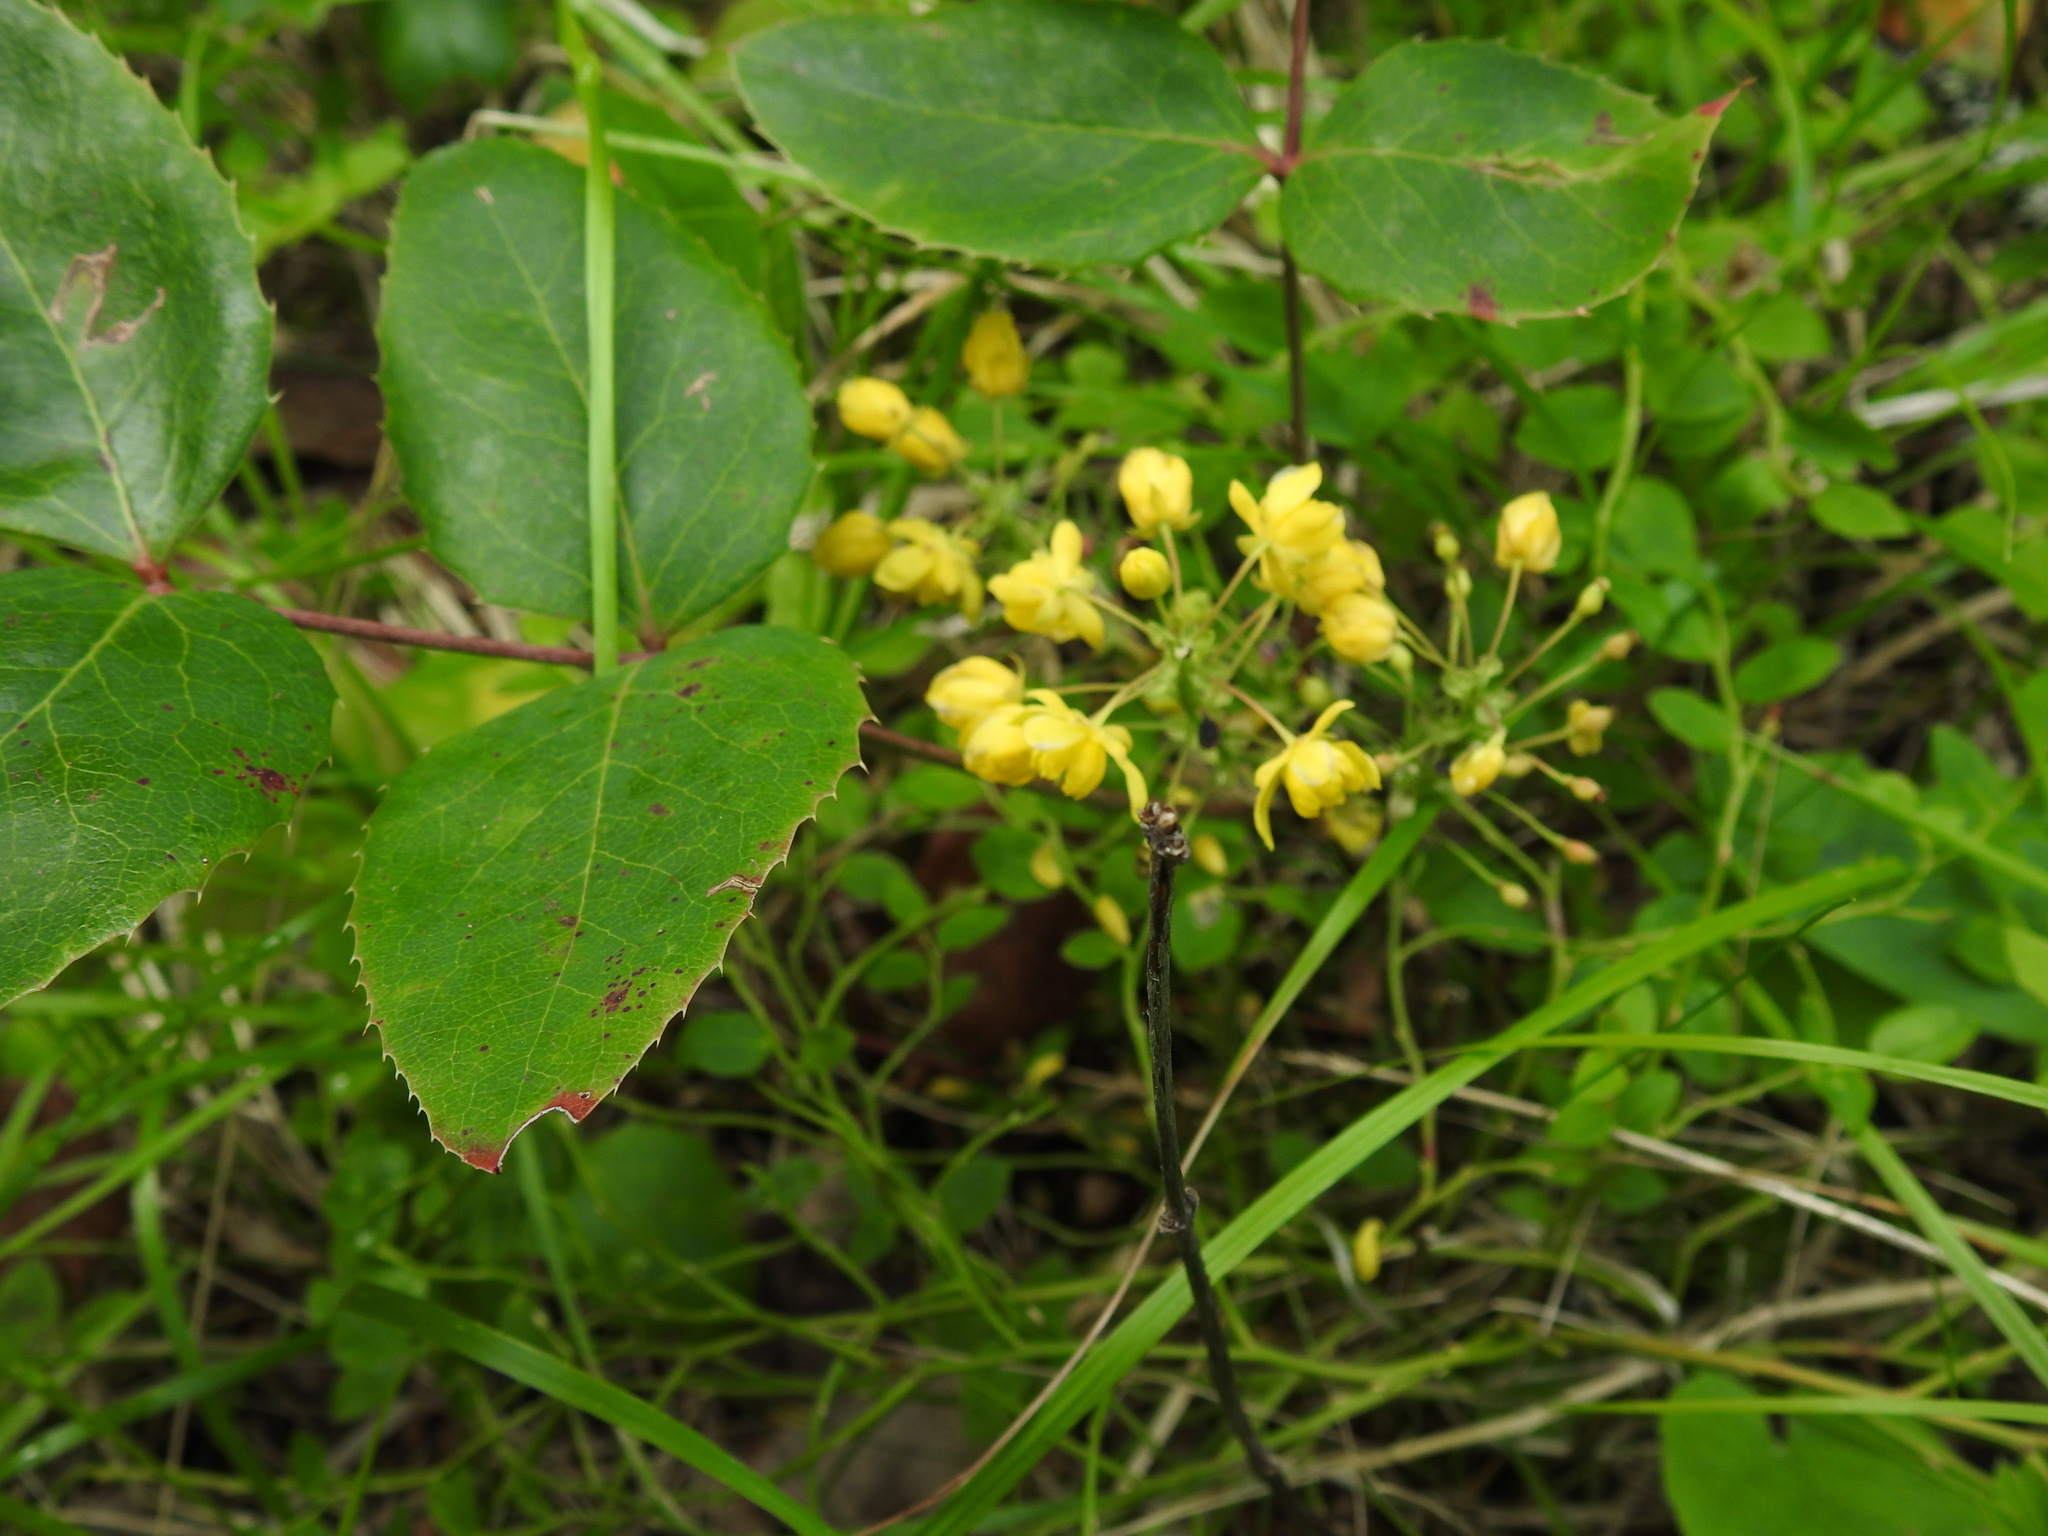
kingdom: Plantae
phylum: Tracheophyta
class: Magnoliopsida
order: Ranunculales
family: Berberidaceae
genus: Mahonia
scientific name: Mahonia repens
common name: Creeping oregon-grape
